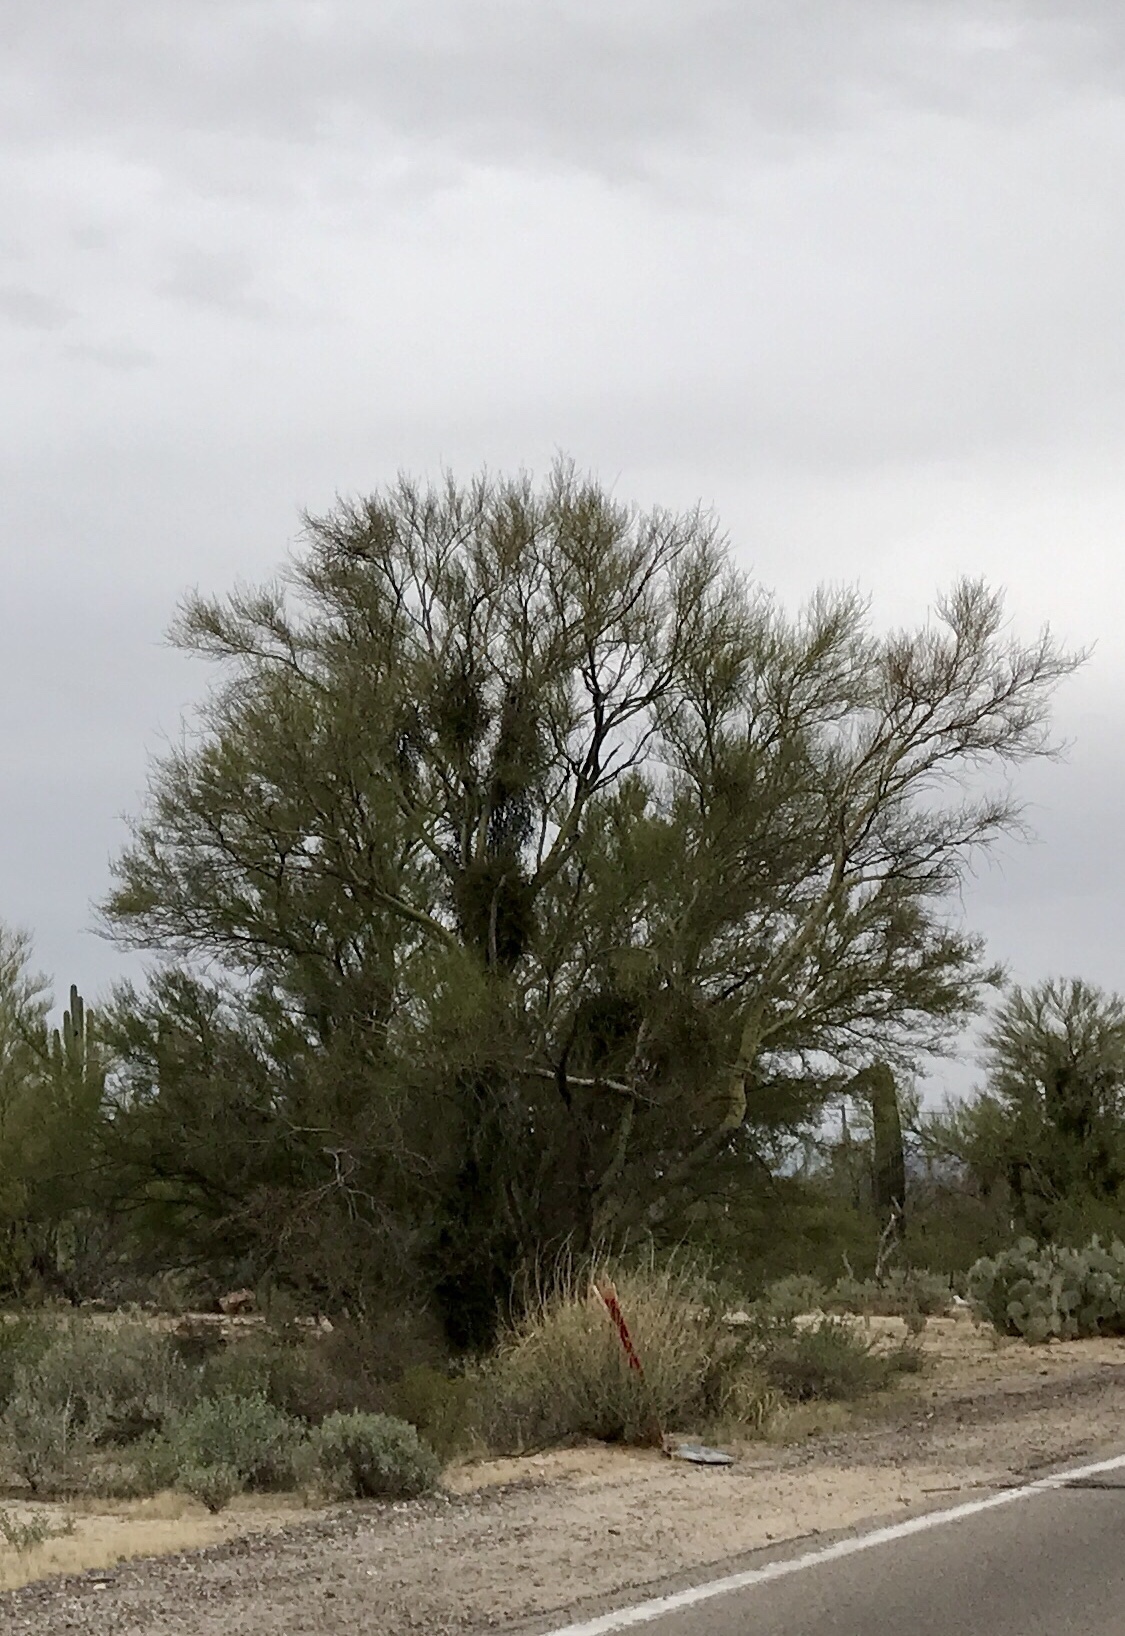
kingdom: Plantae
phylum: Tracheophyta
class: Magnoliopsida
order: Fabales
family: Fabaceae
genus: Parkinsonia
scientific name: Parkinsonia microphylla
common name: Yellow paloverde
